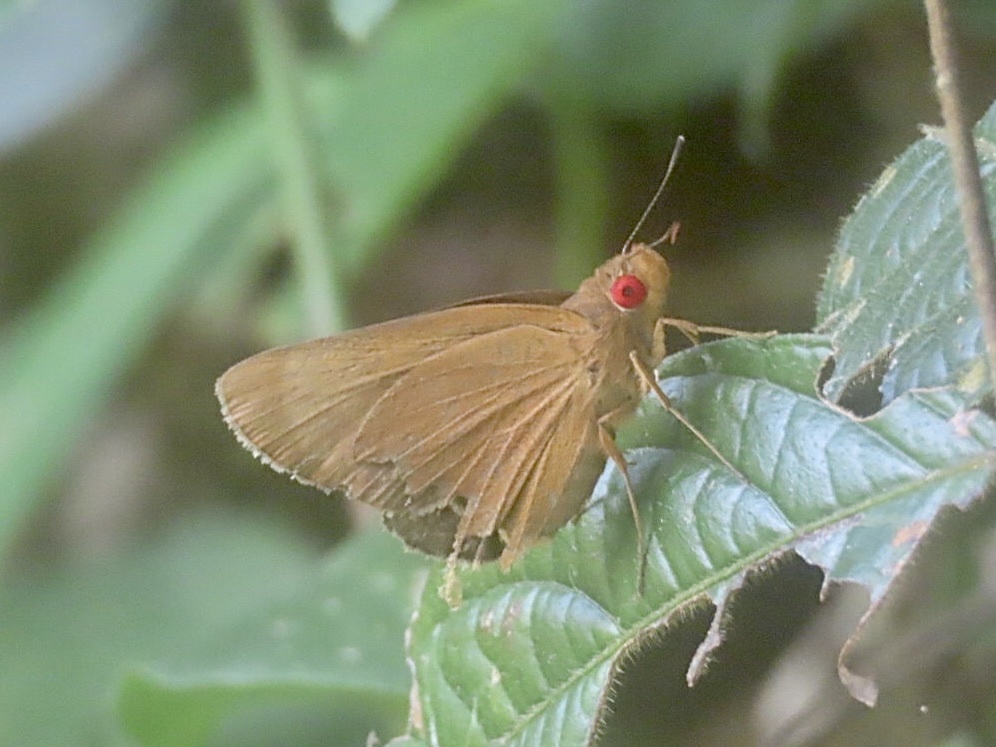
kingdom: Animalia
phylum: Arthropoda
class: Insecta
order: Lepidoptera
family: Hesperiidae
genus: Matapa
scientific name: Matapa aria
